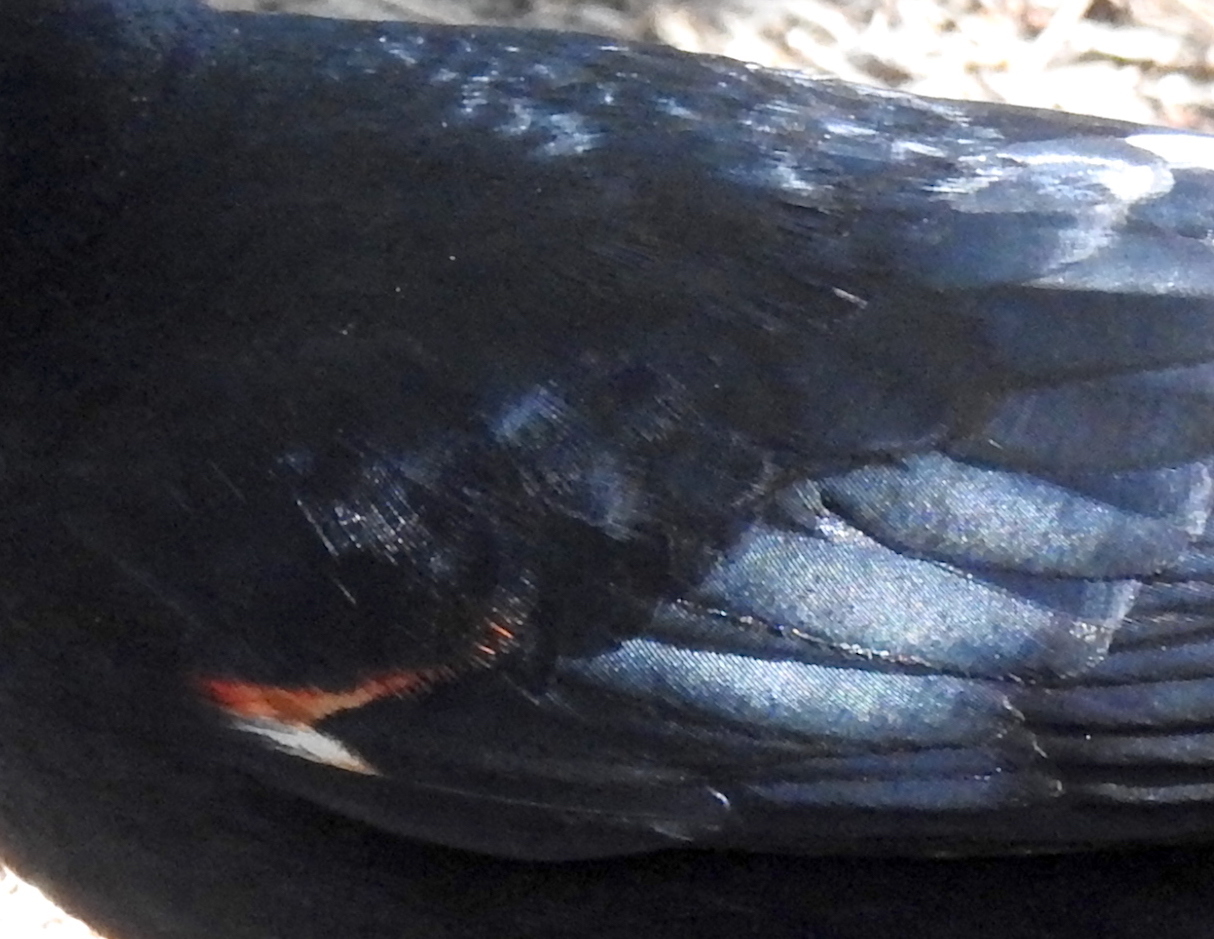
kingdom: Animalia
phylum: Chordata
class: Aves
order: Passeriformes
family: Icteridae
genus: Agelaius
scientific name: Agelaius phoeniceus
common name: Red-winged blackbird
